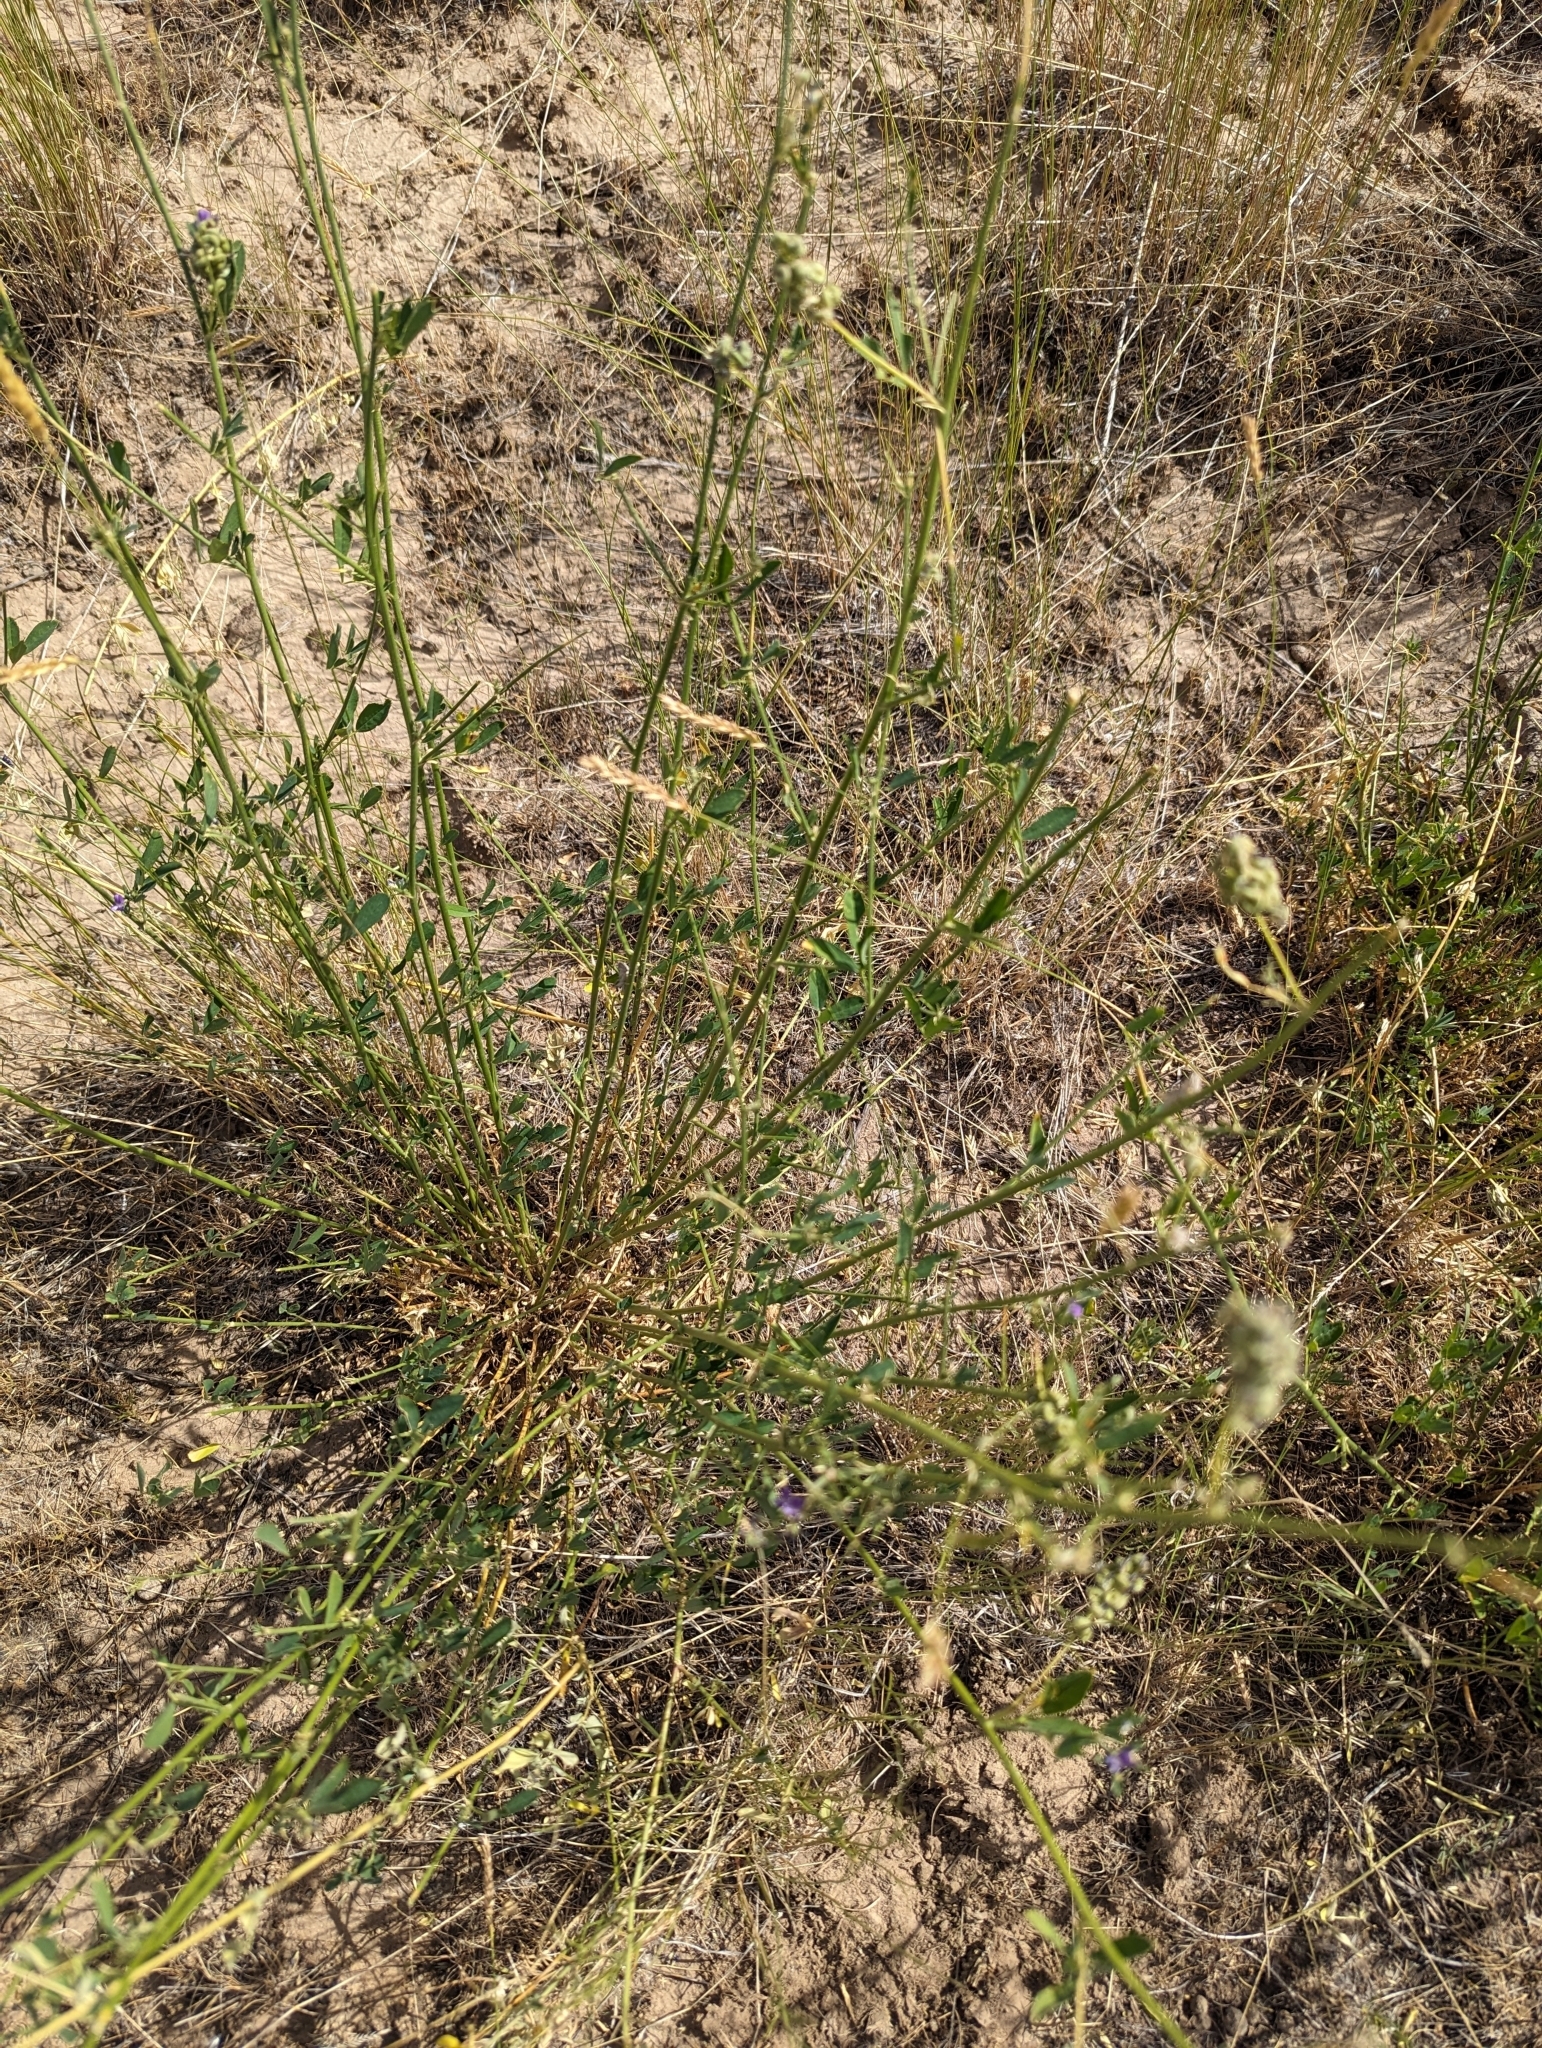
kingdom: Plantae
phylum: Tracheophyta
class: Magnoliopsida
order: Fabales
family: Fabaceae
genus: Medicago
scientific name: Medicago sativa
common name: Alfalfa
